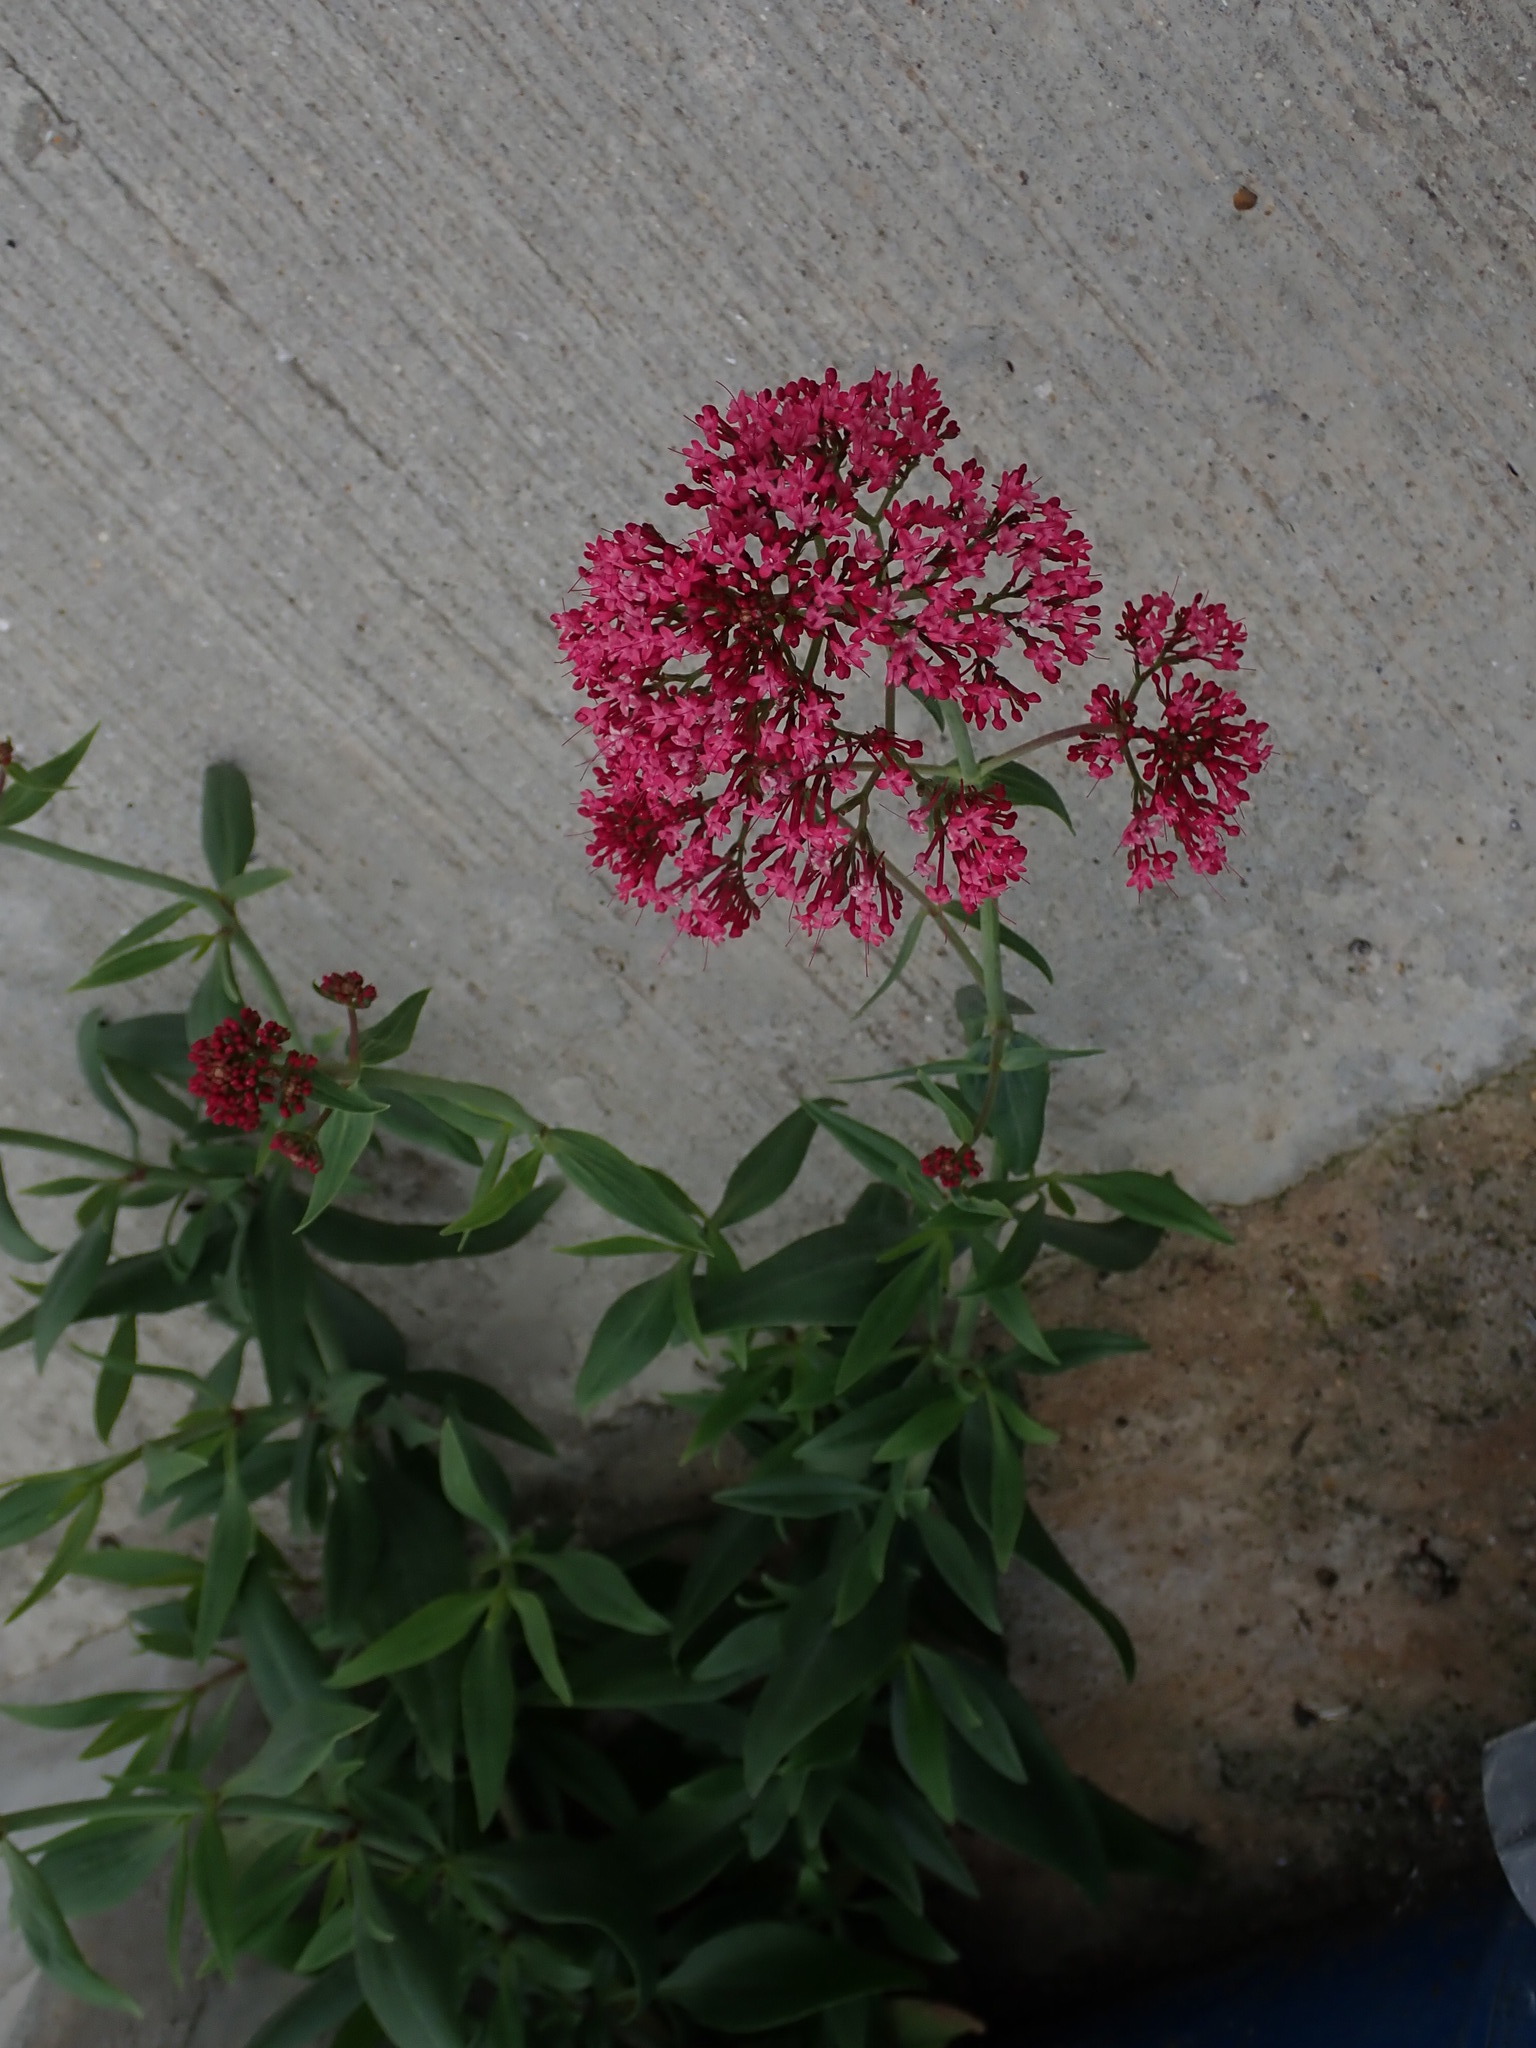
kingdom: Plantae
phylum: Tracheophyta
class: Magnoliopsida
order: Dipsacales
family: Caprifoliaceae
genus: Centranthus
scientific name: Centranthus ruber
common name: Red valerian
